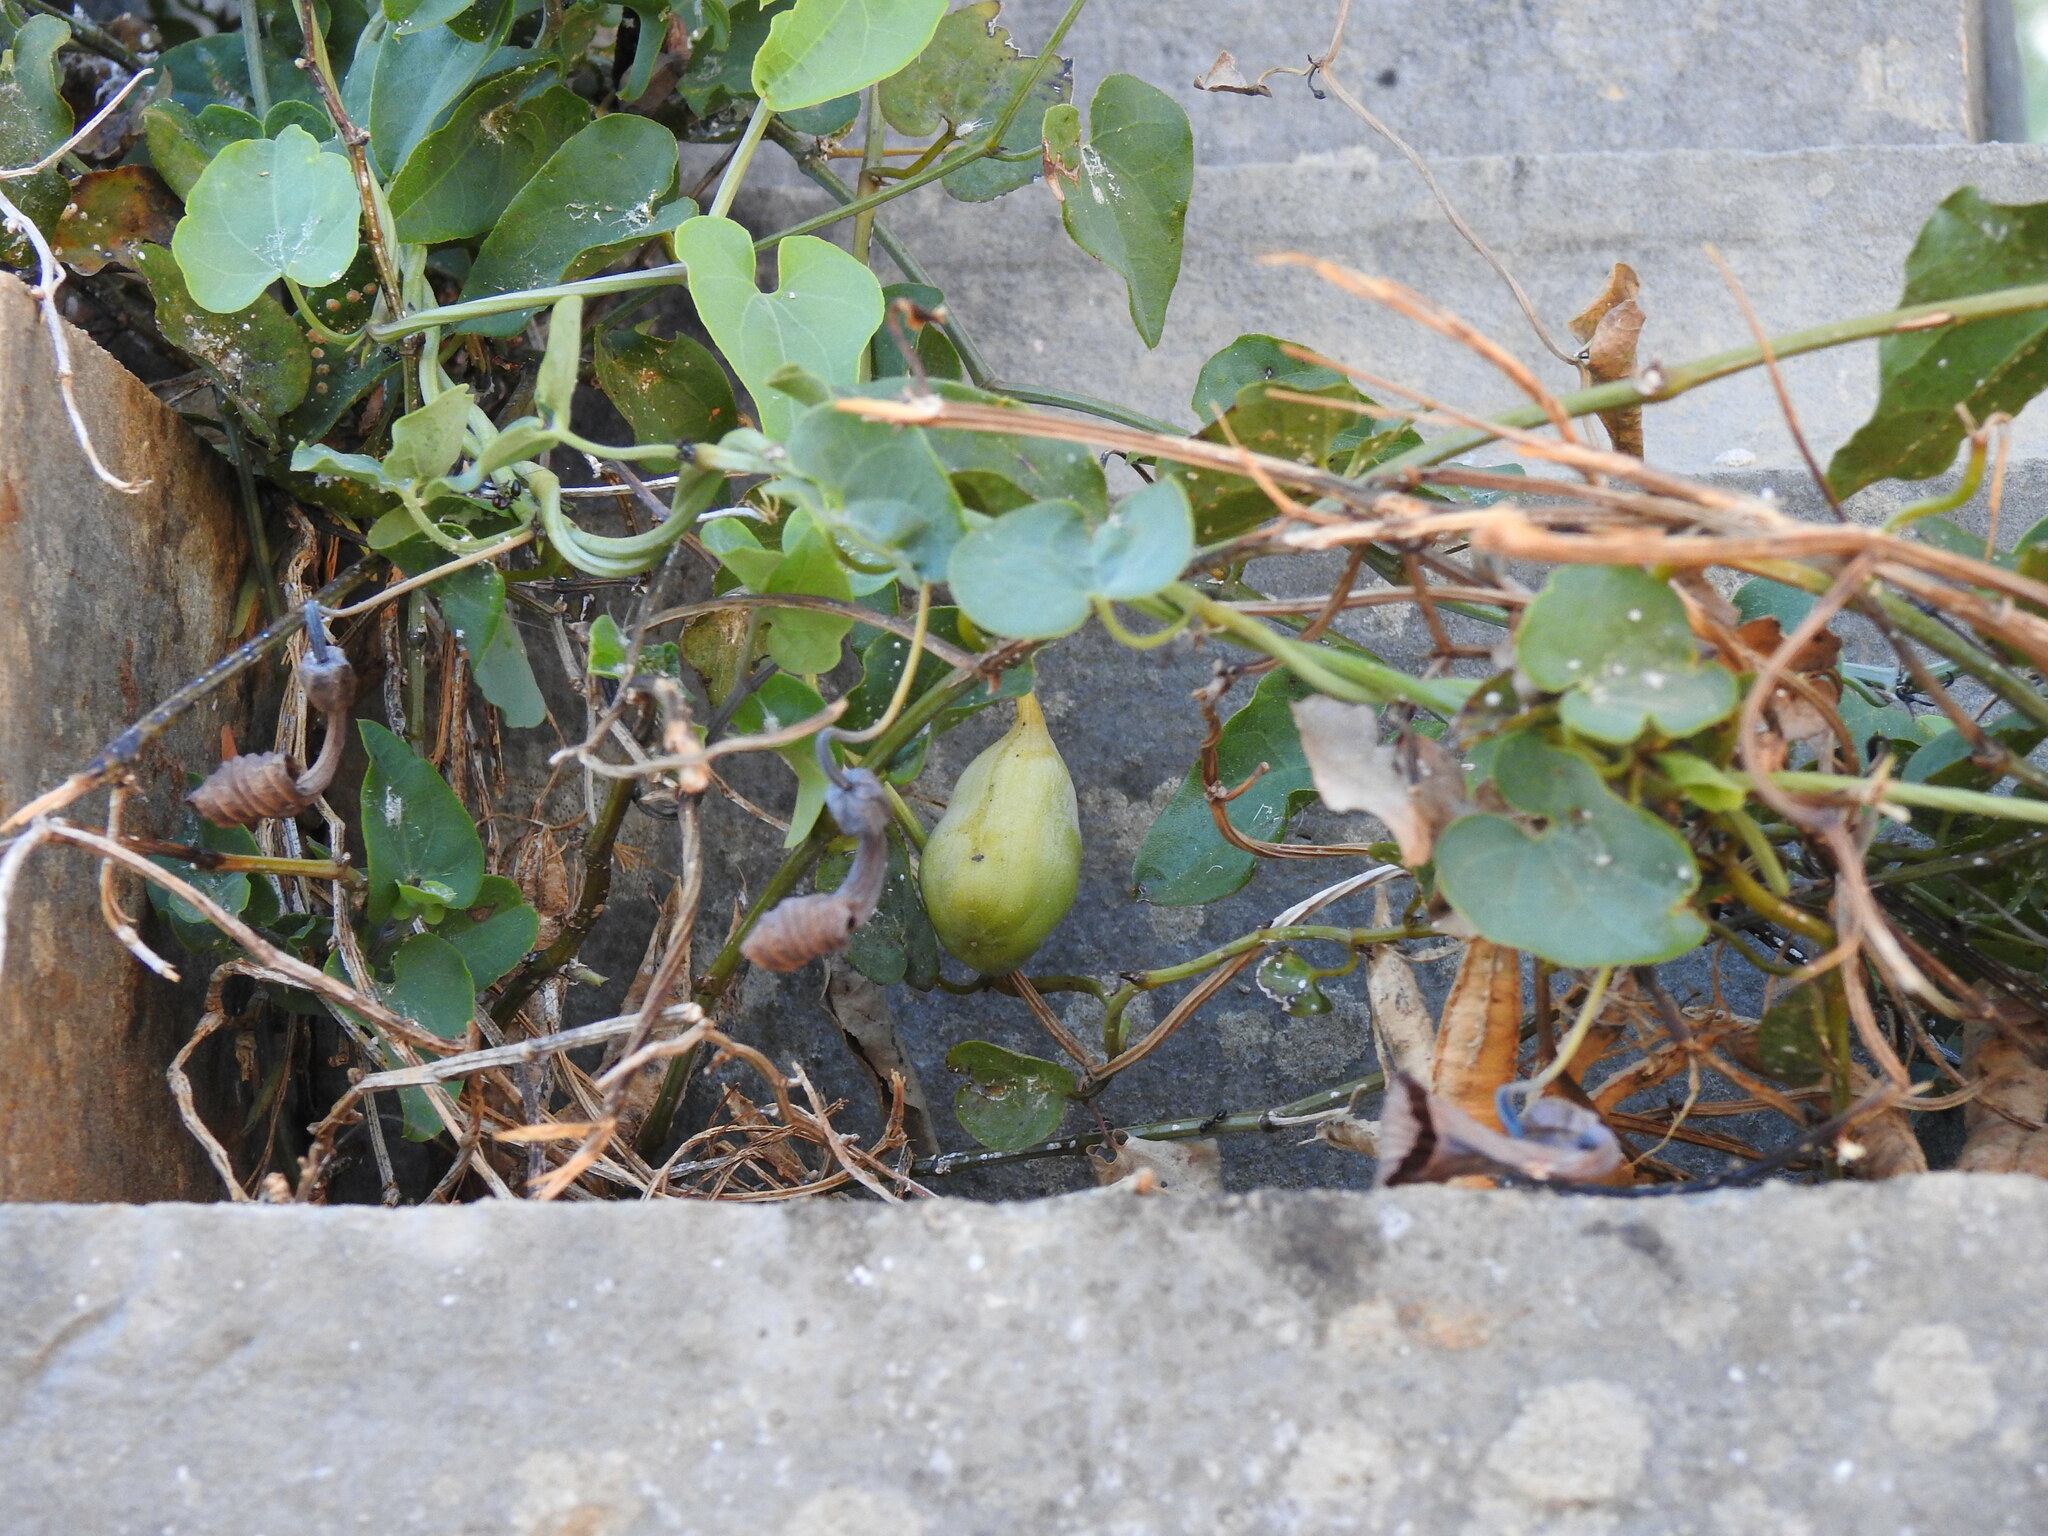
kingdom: Plantae
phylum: Tracheophyta
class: Magnoliopsida
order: Piperales
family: Aristolochiaceae
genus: Aristolochia
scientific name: Aristolochia baetica
